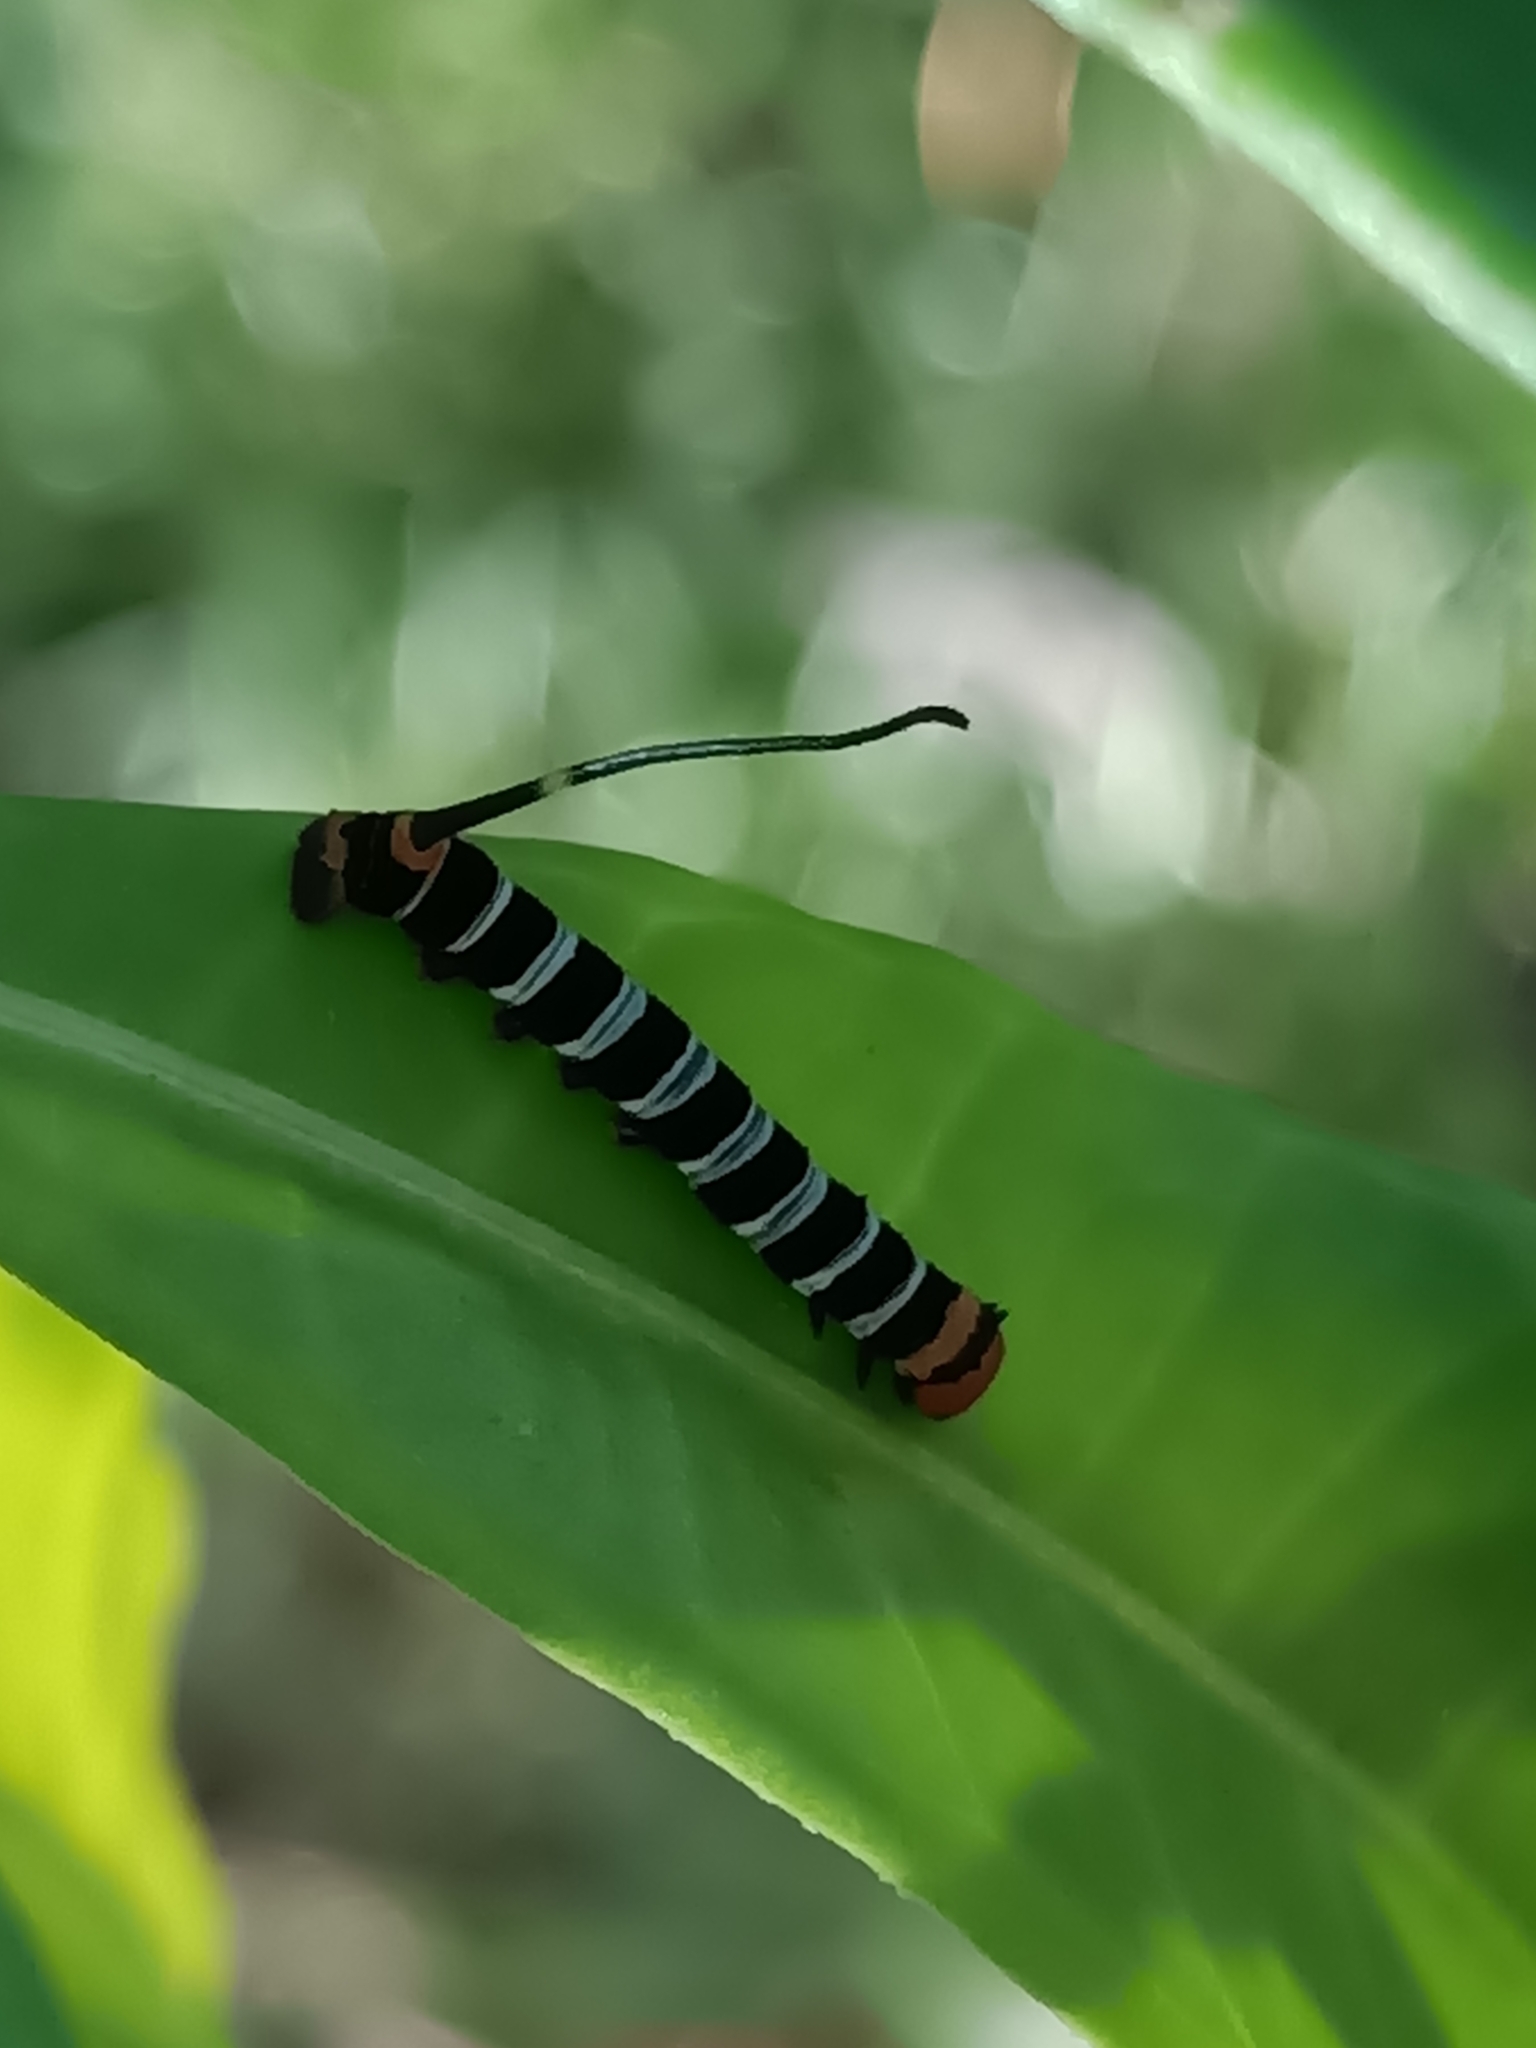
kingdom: Animalia
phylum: Arthropoda
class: Insecta
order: Lepidoptera
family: Sphingidae
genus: Isognathus
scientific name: Isognathus swainsoni
